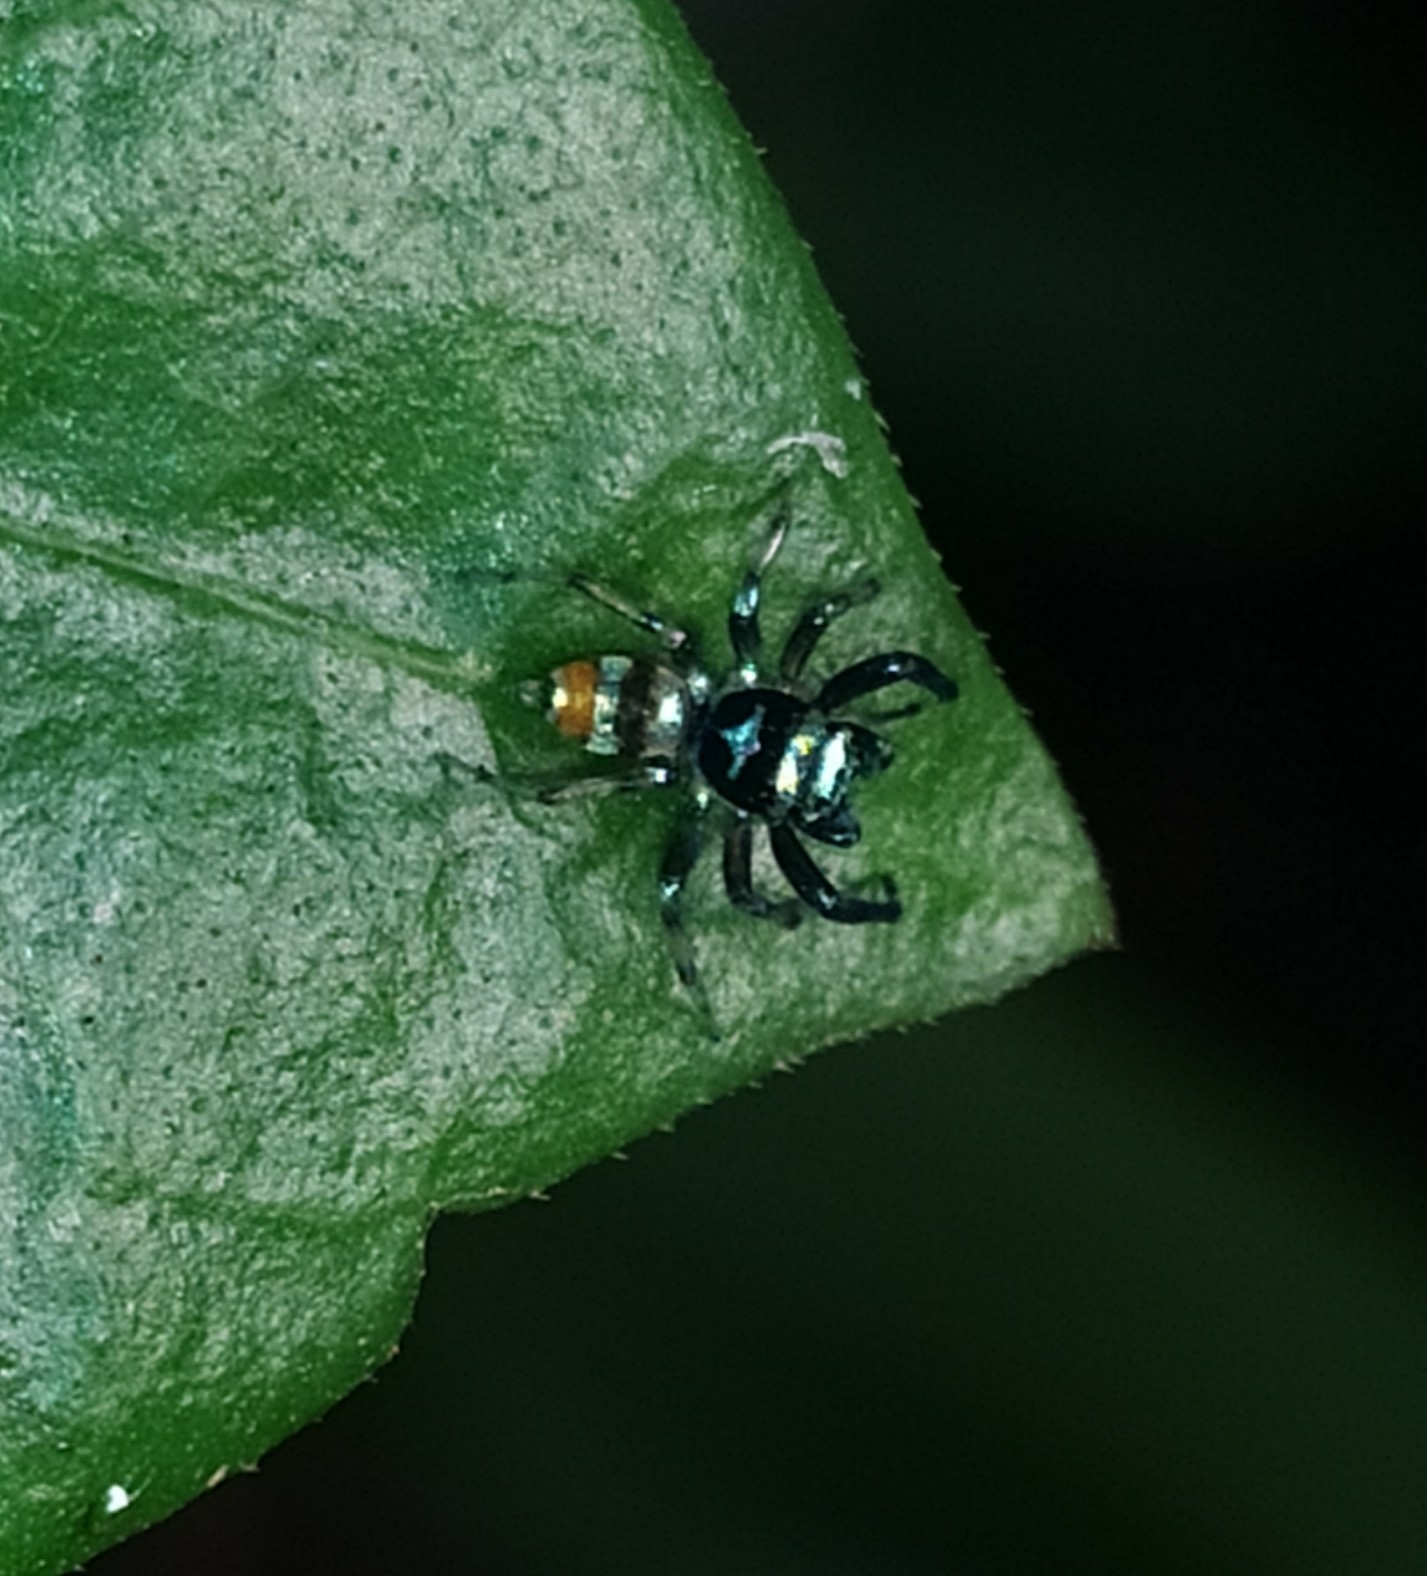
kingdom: Animalia
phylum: Arthropoda
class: Arachnida
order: Araneae
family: Salticidae
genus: Phintella
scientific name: Phintella vittata
